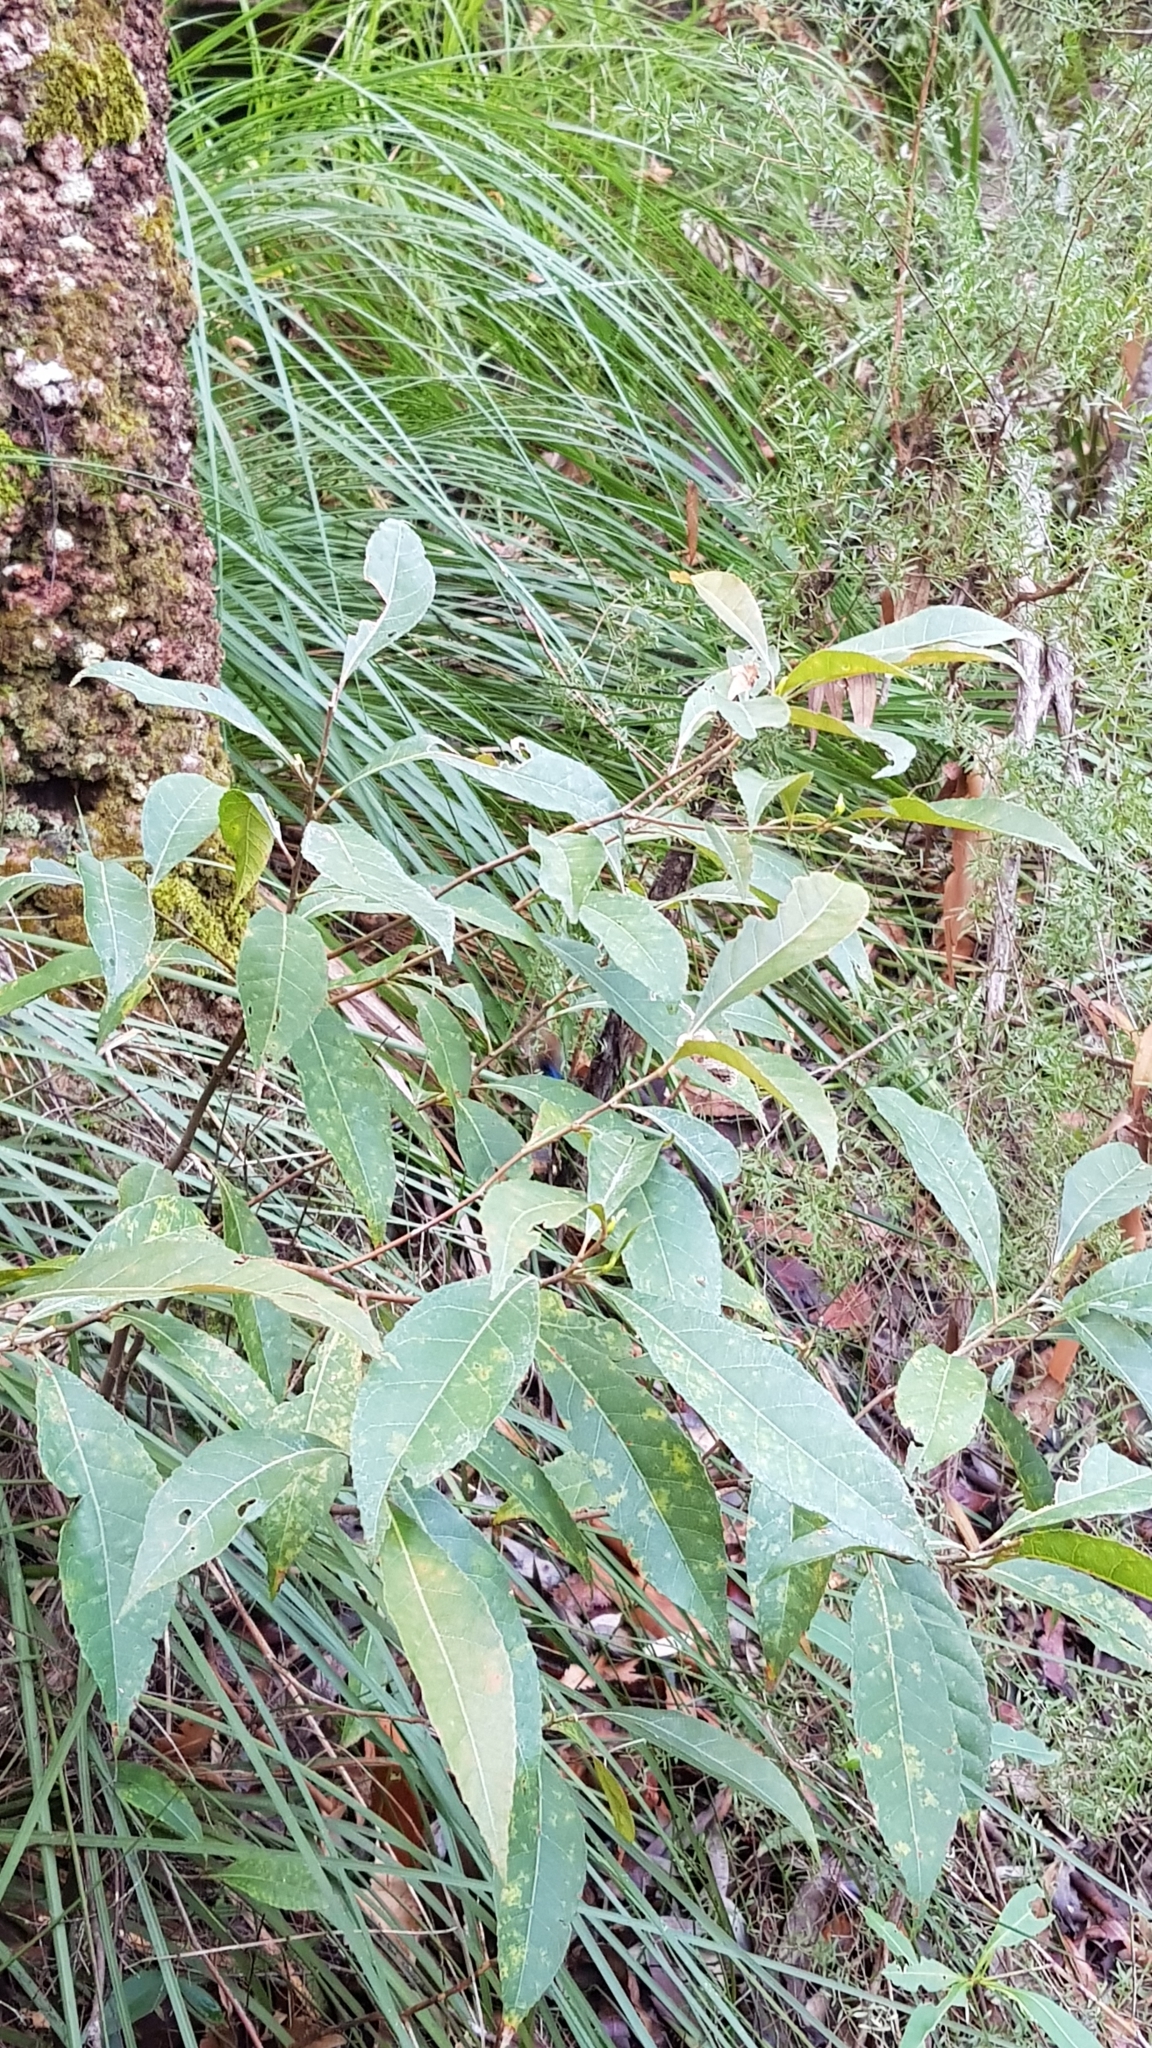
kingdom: Animalia
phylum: Chordata
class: Aves
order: Passeriformes
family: Maluridae
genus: Malurus
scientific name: Malurus lamberti
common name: Variegated fairywren
